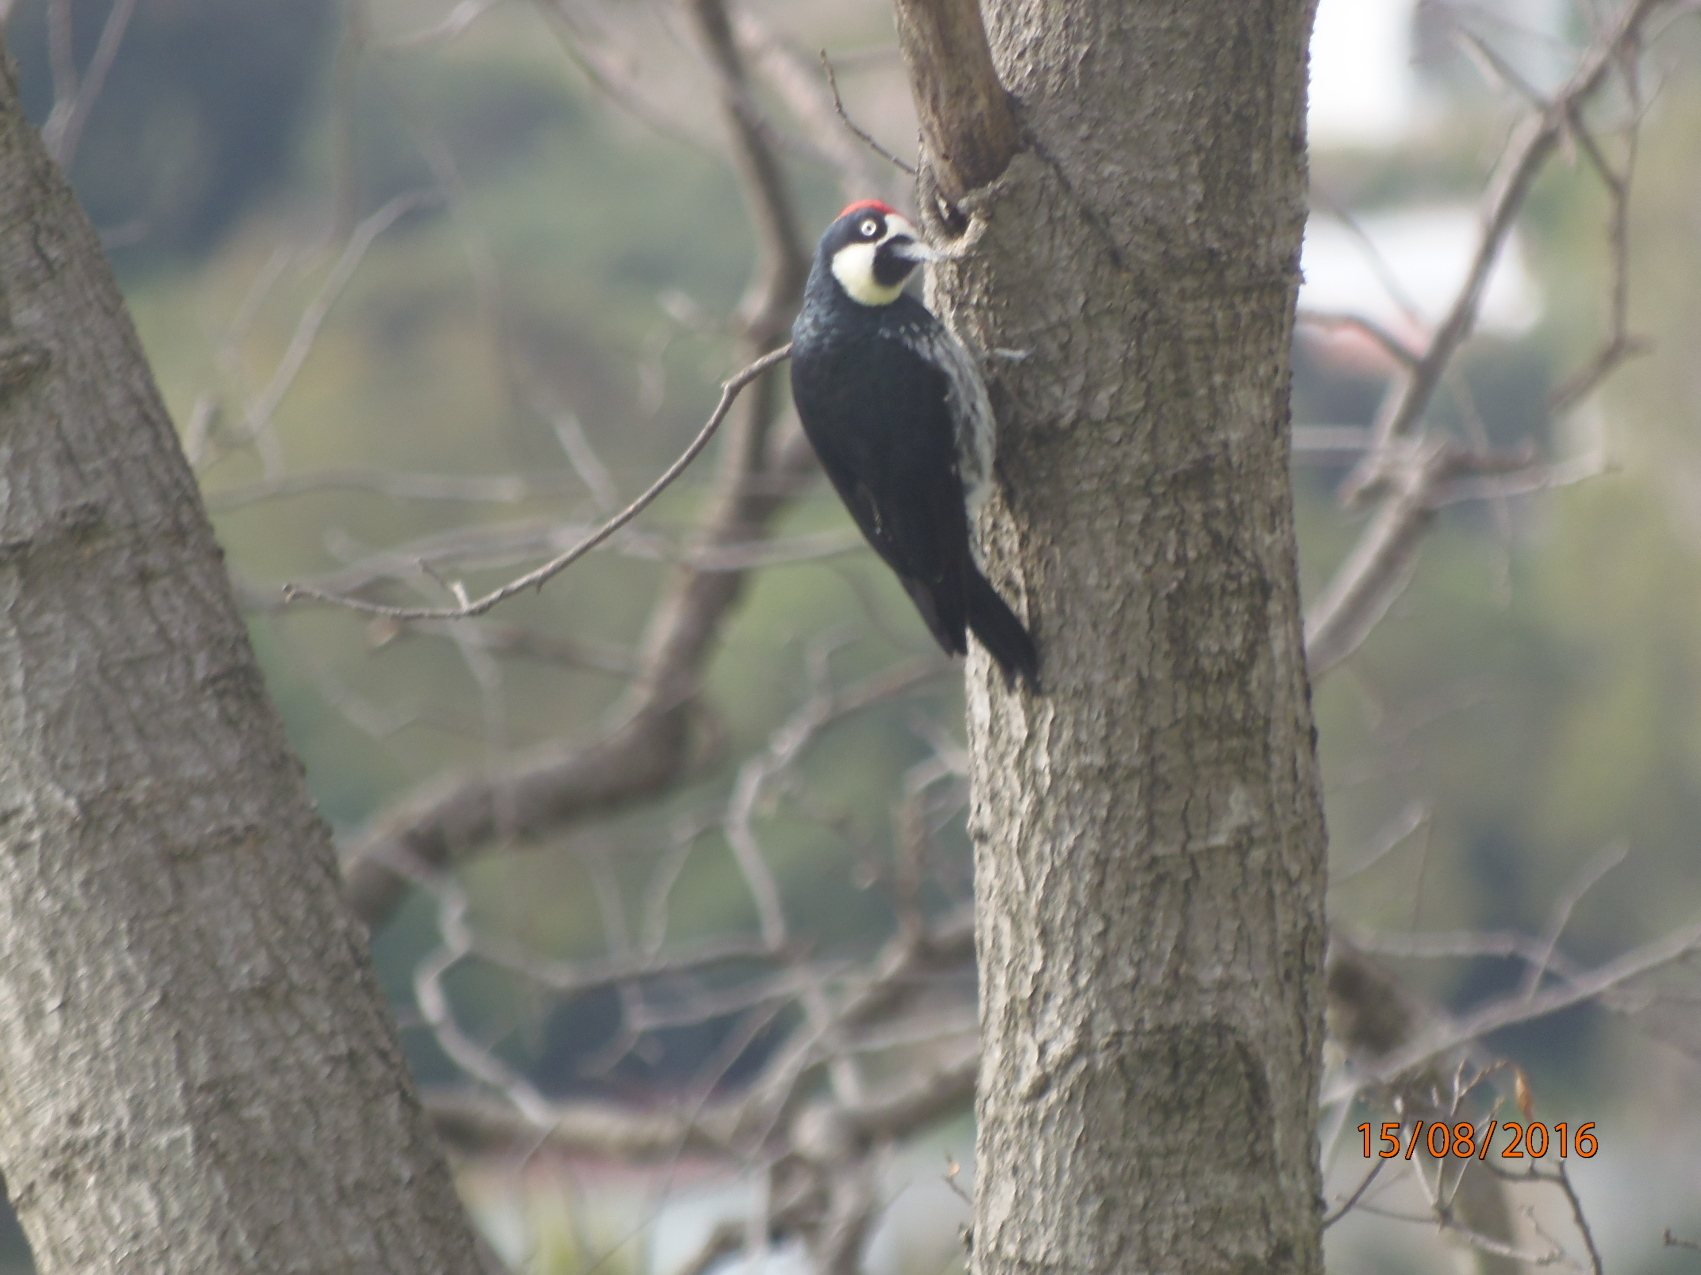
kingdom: Animalia
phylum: Chordata
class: Aves
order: Piciformes
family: Picidae
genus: Melanerpes
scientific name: Melanerpes formicivorus
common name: Acorn woodpecker
